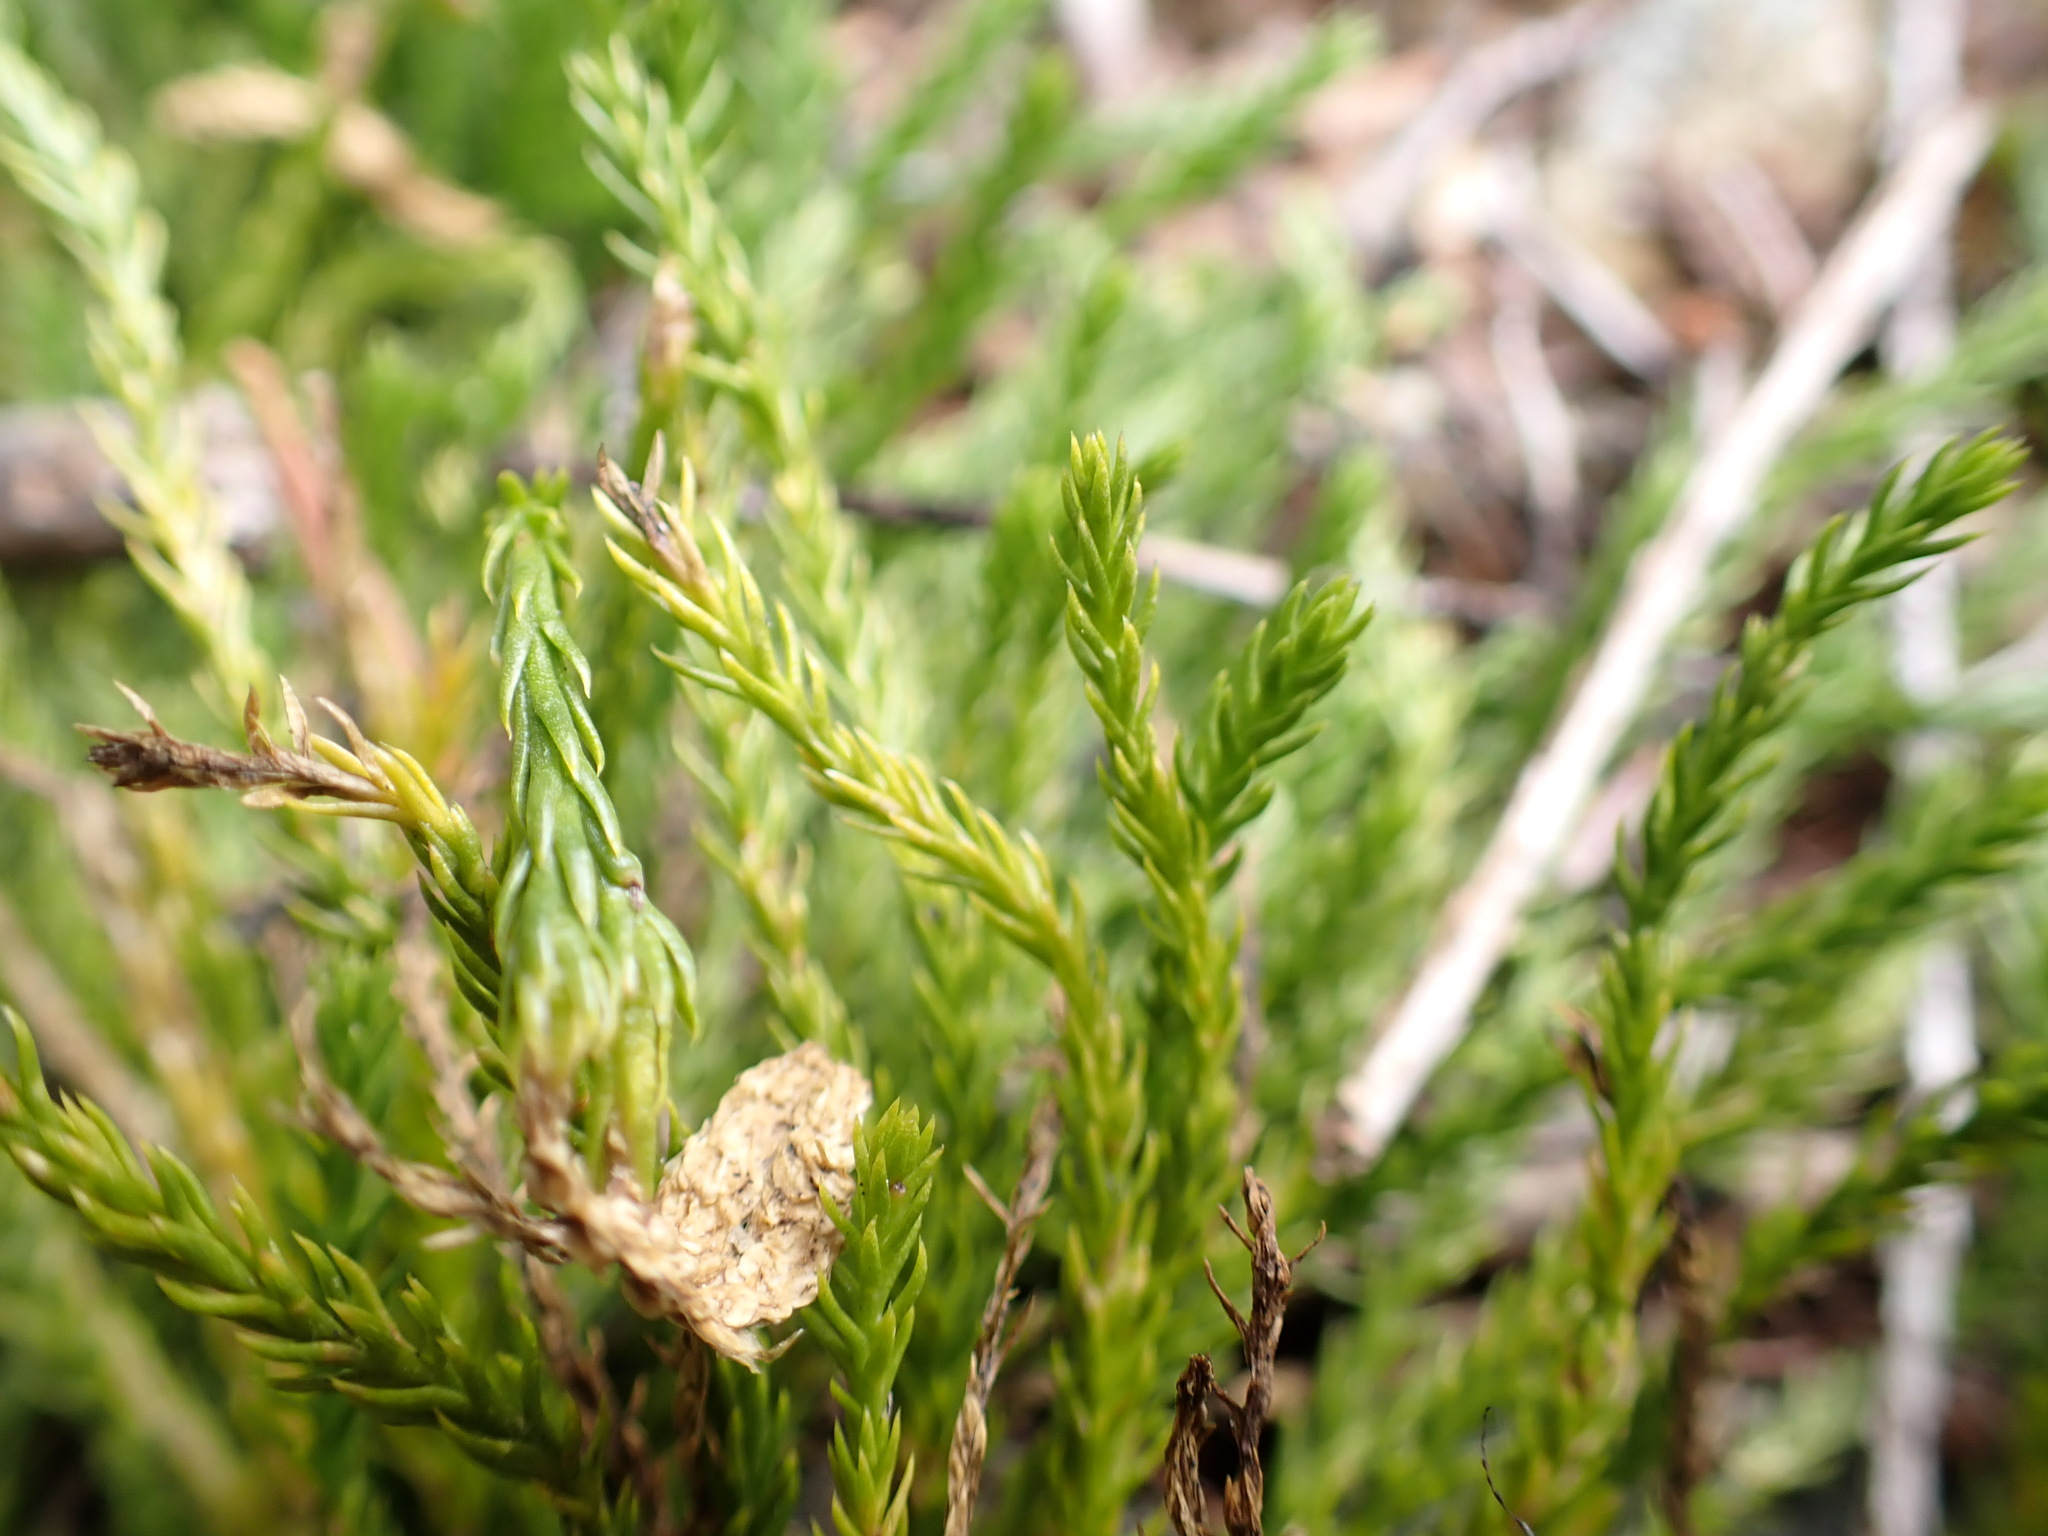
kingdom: Plantae
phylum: Tracheophyta
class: Lycopodiopsida
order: Lycopodiales
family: Lycopodiaceae
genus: Diphasiastrum
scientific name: Diphasiastrum sitchense
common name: Alaska clubmoss
